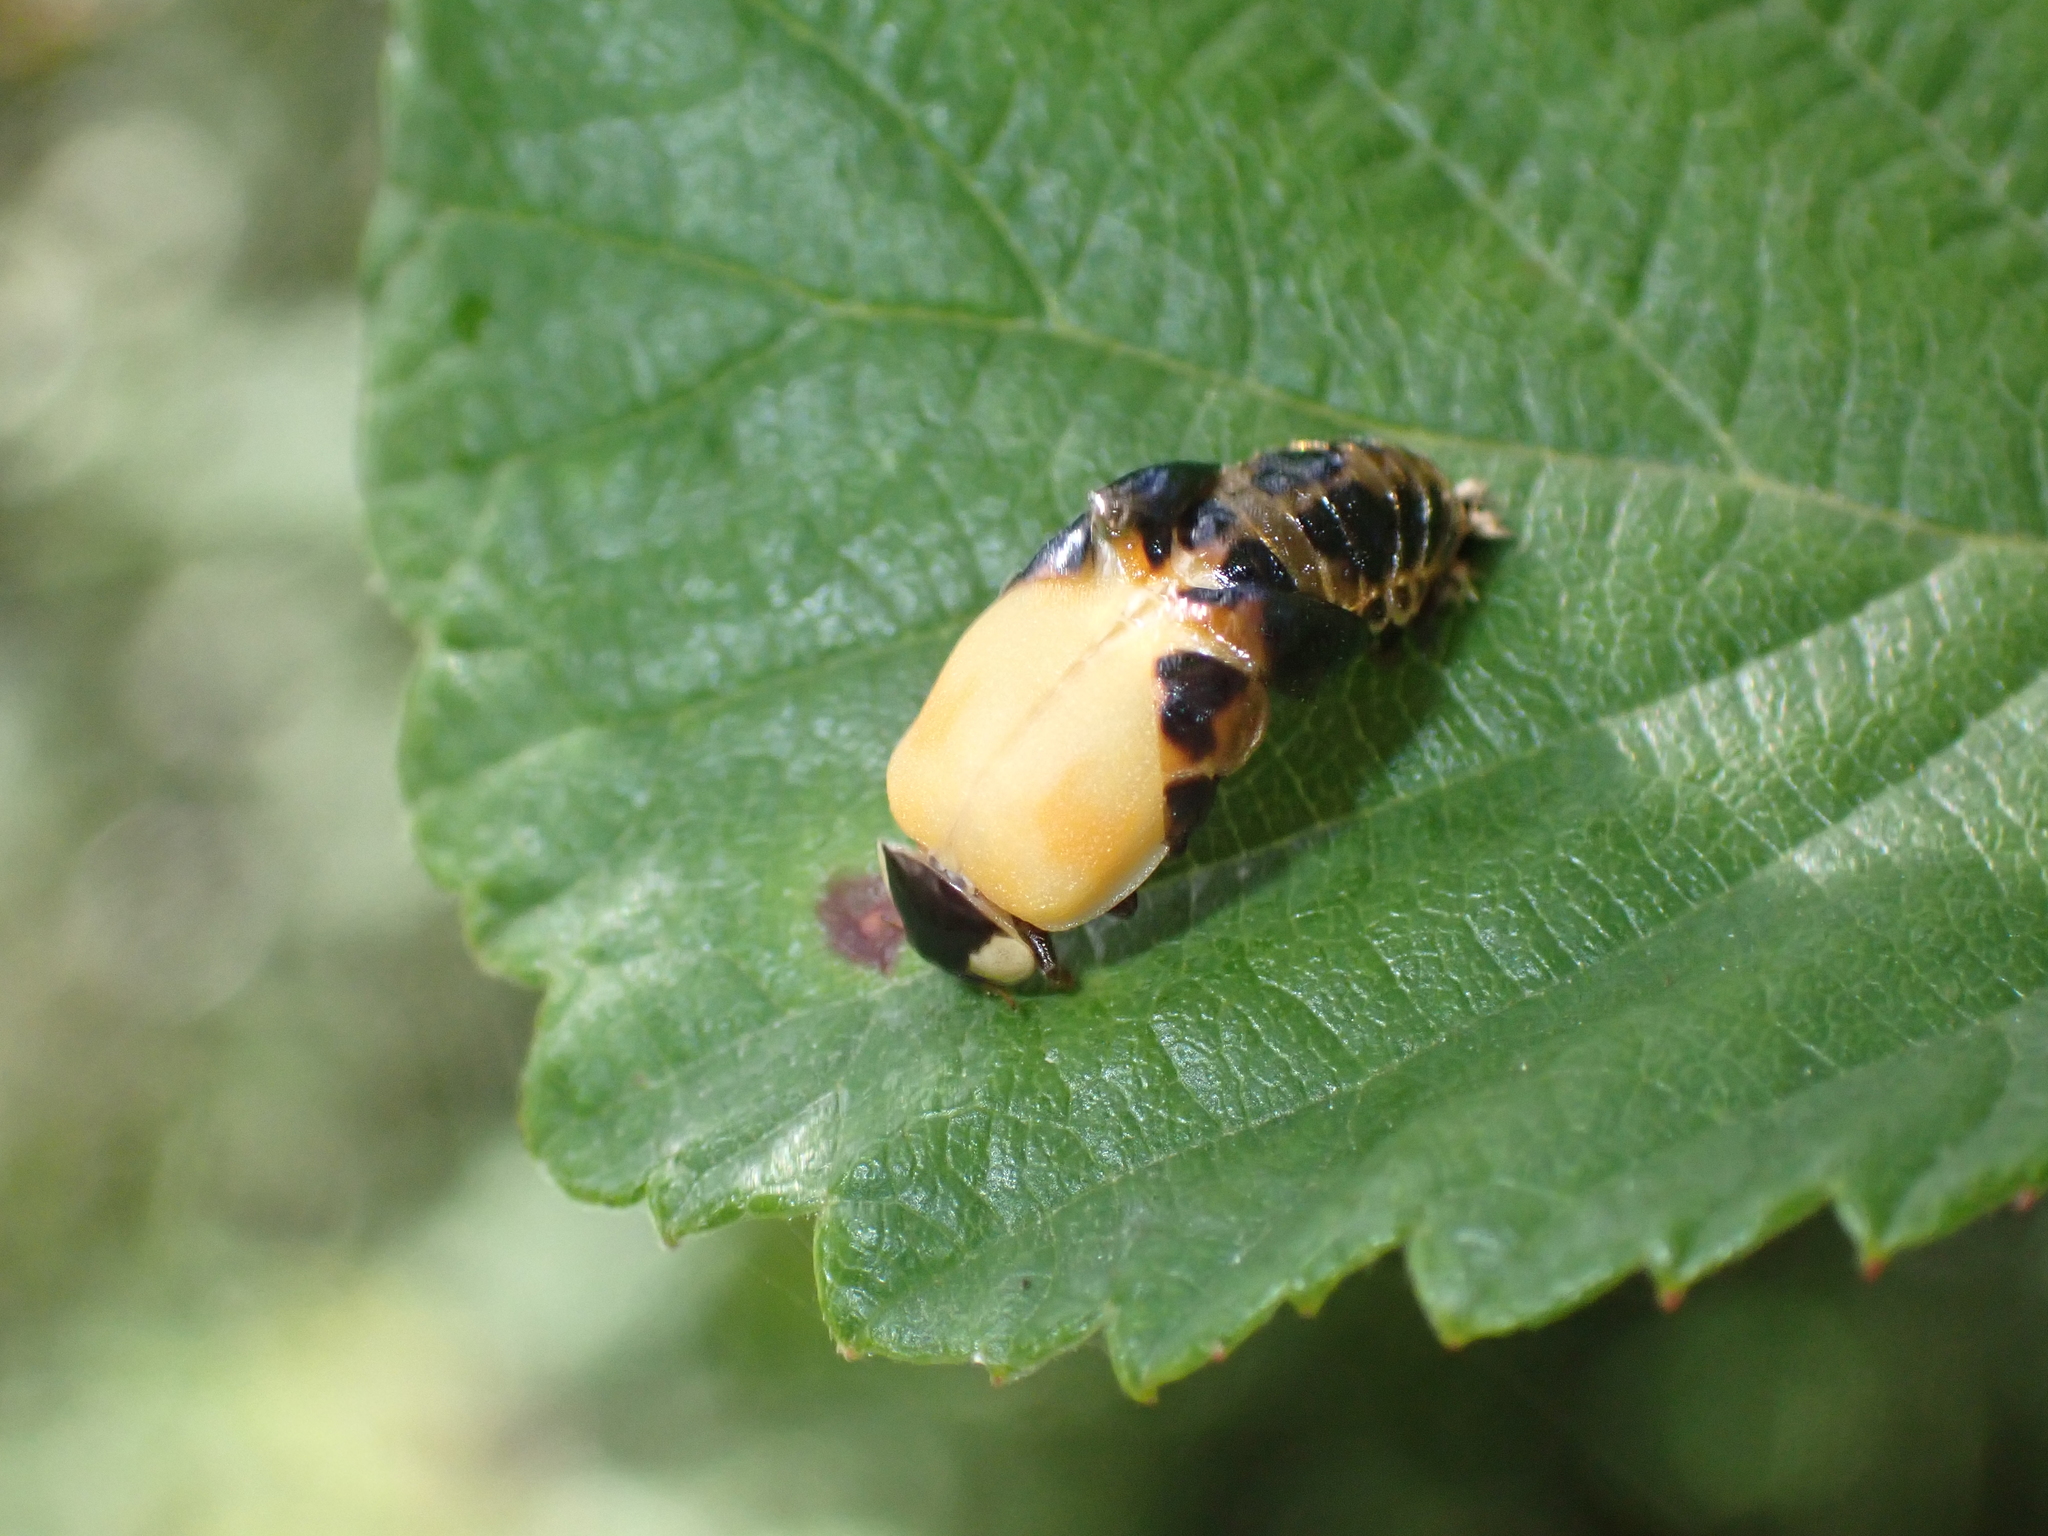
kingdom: Animalia
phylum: Arthropoda
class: Insecta
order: Coleoptera
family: Coccinellidae
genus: Harmonia
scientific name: Harmonia axyridis
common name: Harlequin ladybird
